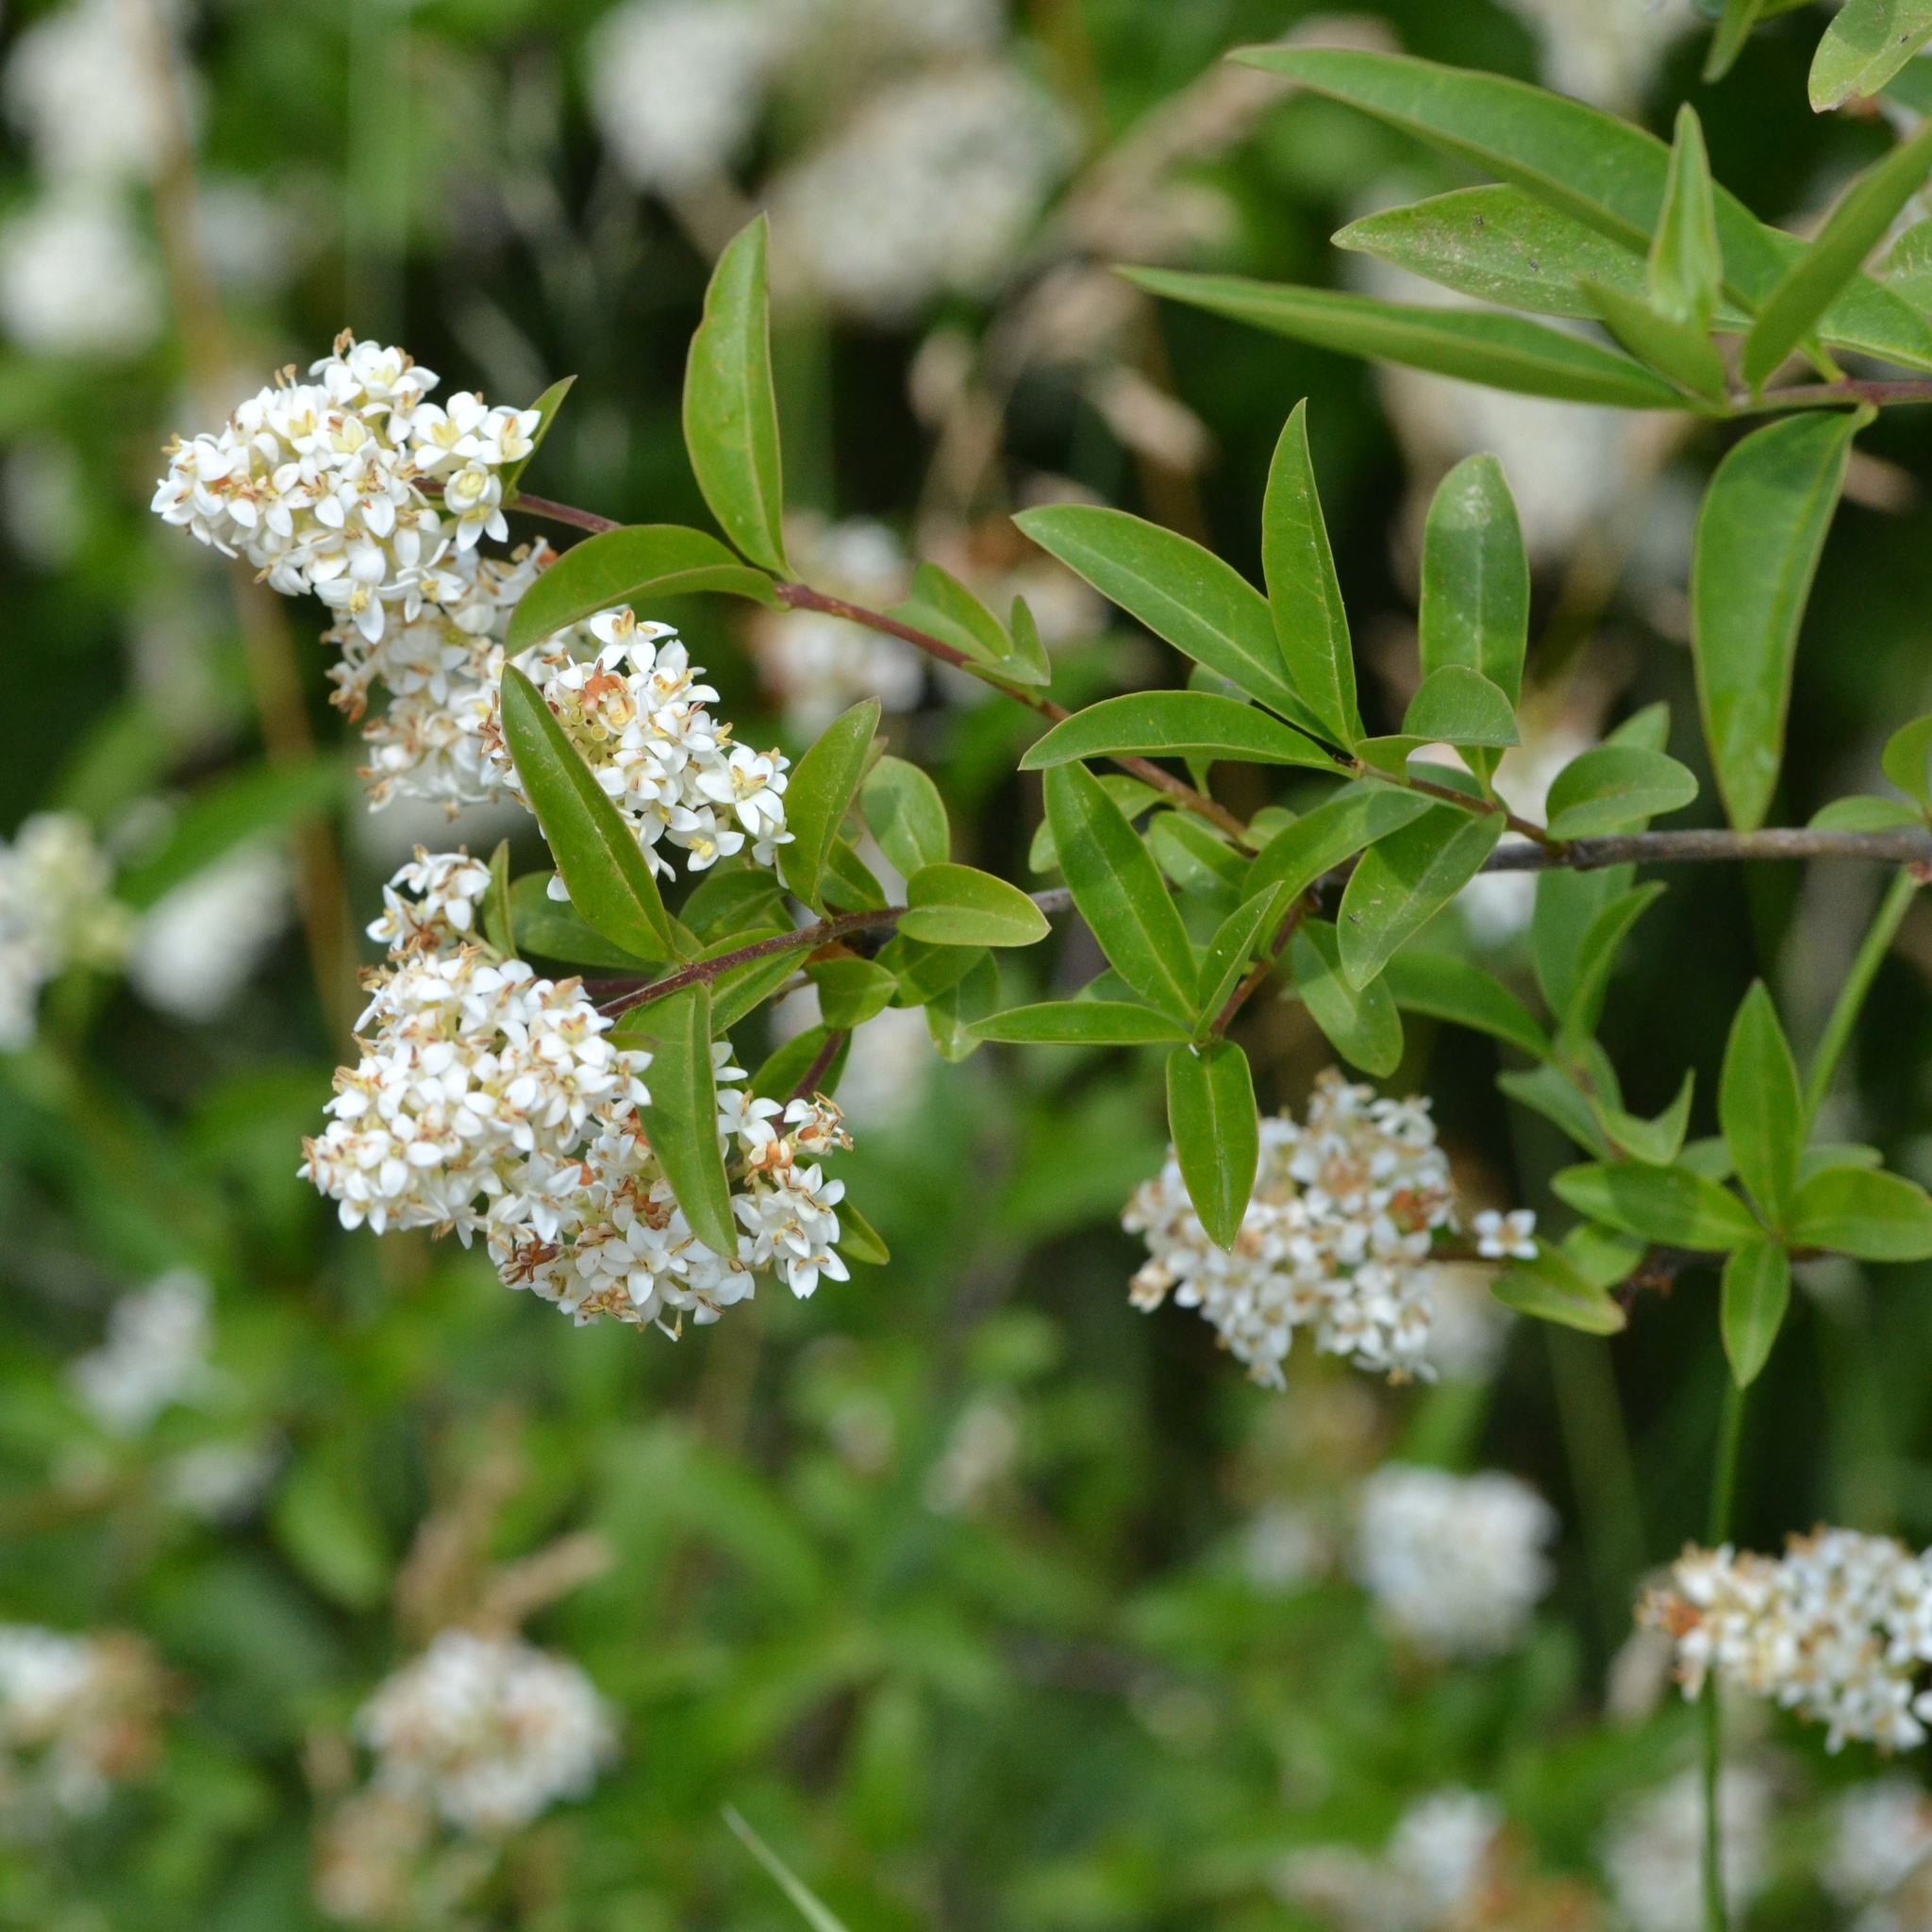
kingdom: Plantae
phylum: Tracheophyta
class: Magnoliopsida
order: Lamiales
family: Oleaceae
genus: Ligustrum
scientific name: Ligustrum vulgare
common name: Wild privet
